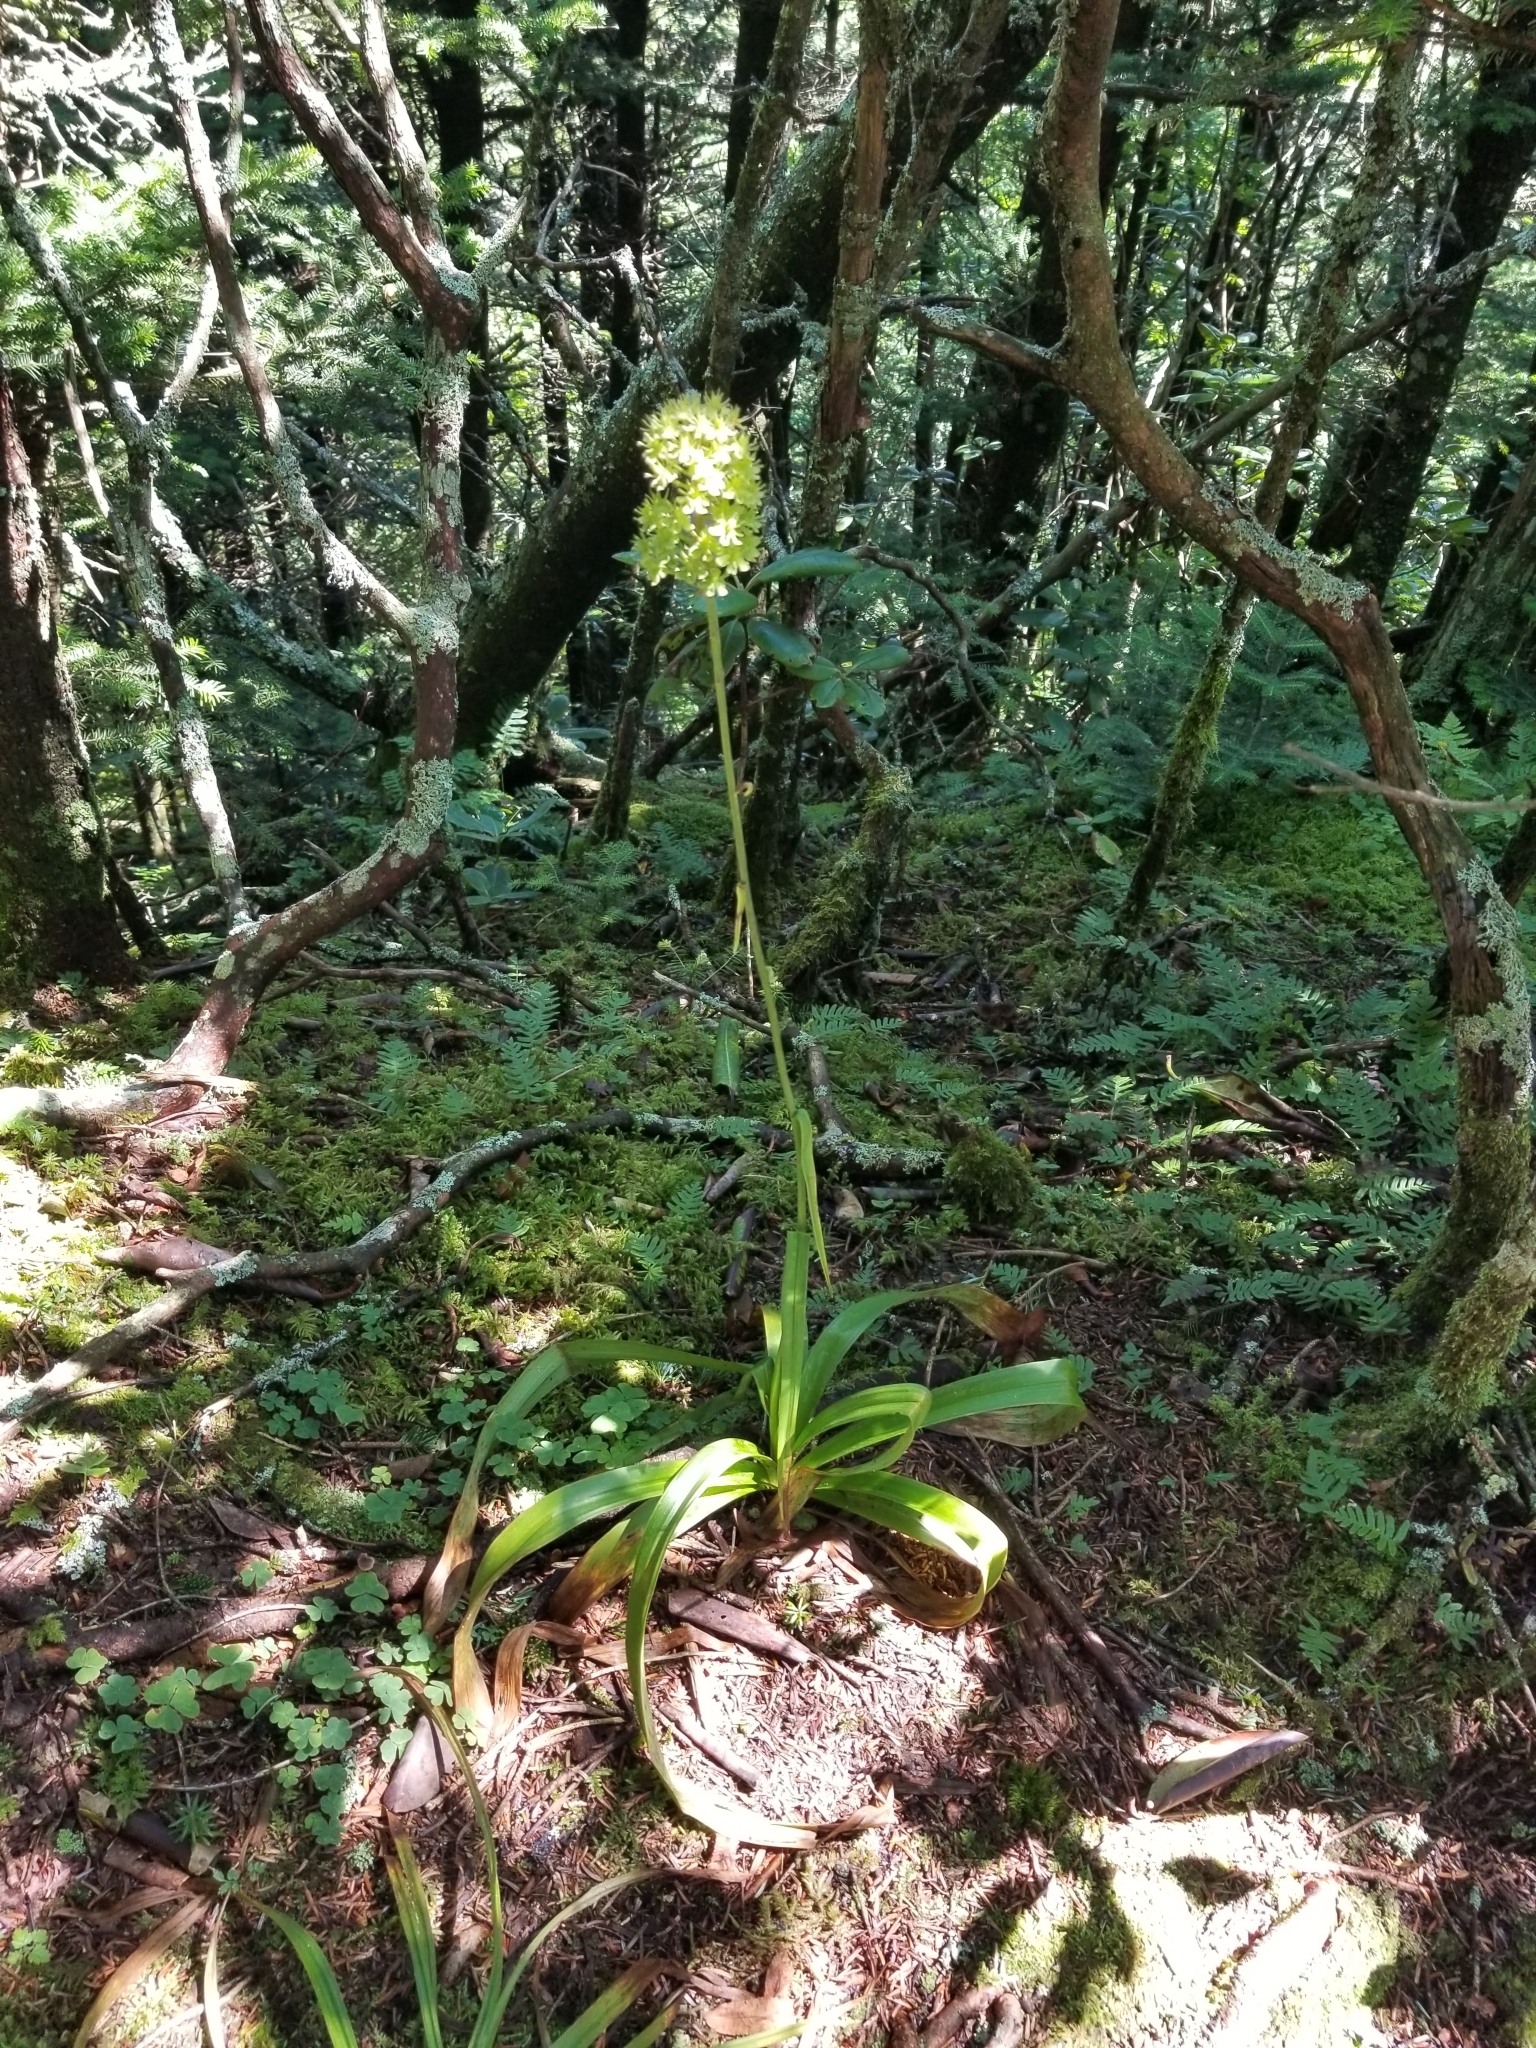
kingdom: Plantae
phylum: Tracheophyta
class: Liliopsida
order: Liliales
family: Melanthiaceae
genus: Amianthium
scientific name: Amianthium muscitoxicum
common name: Fly-poison
